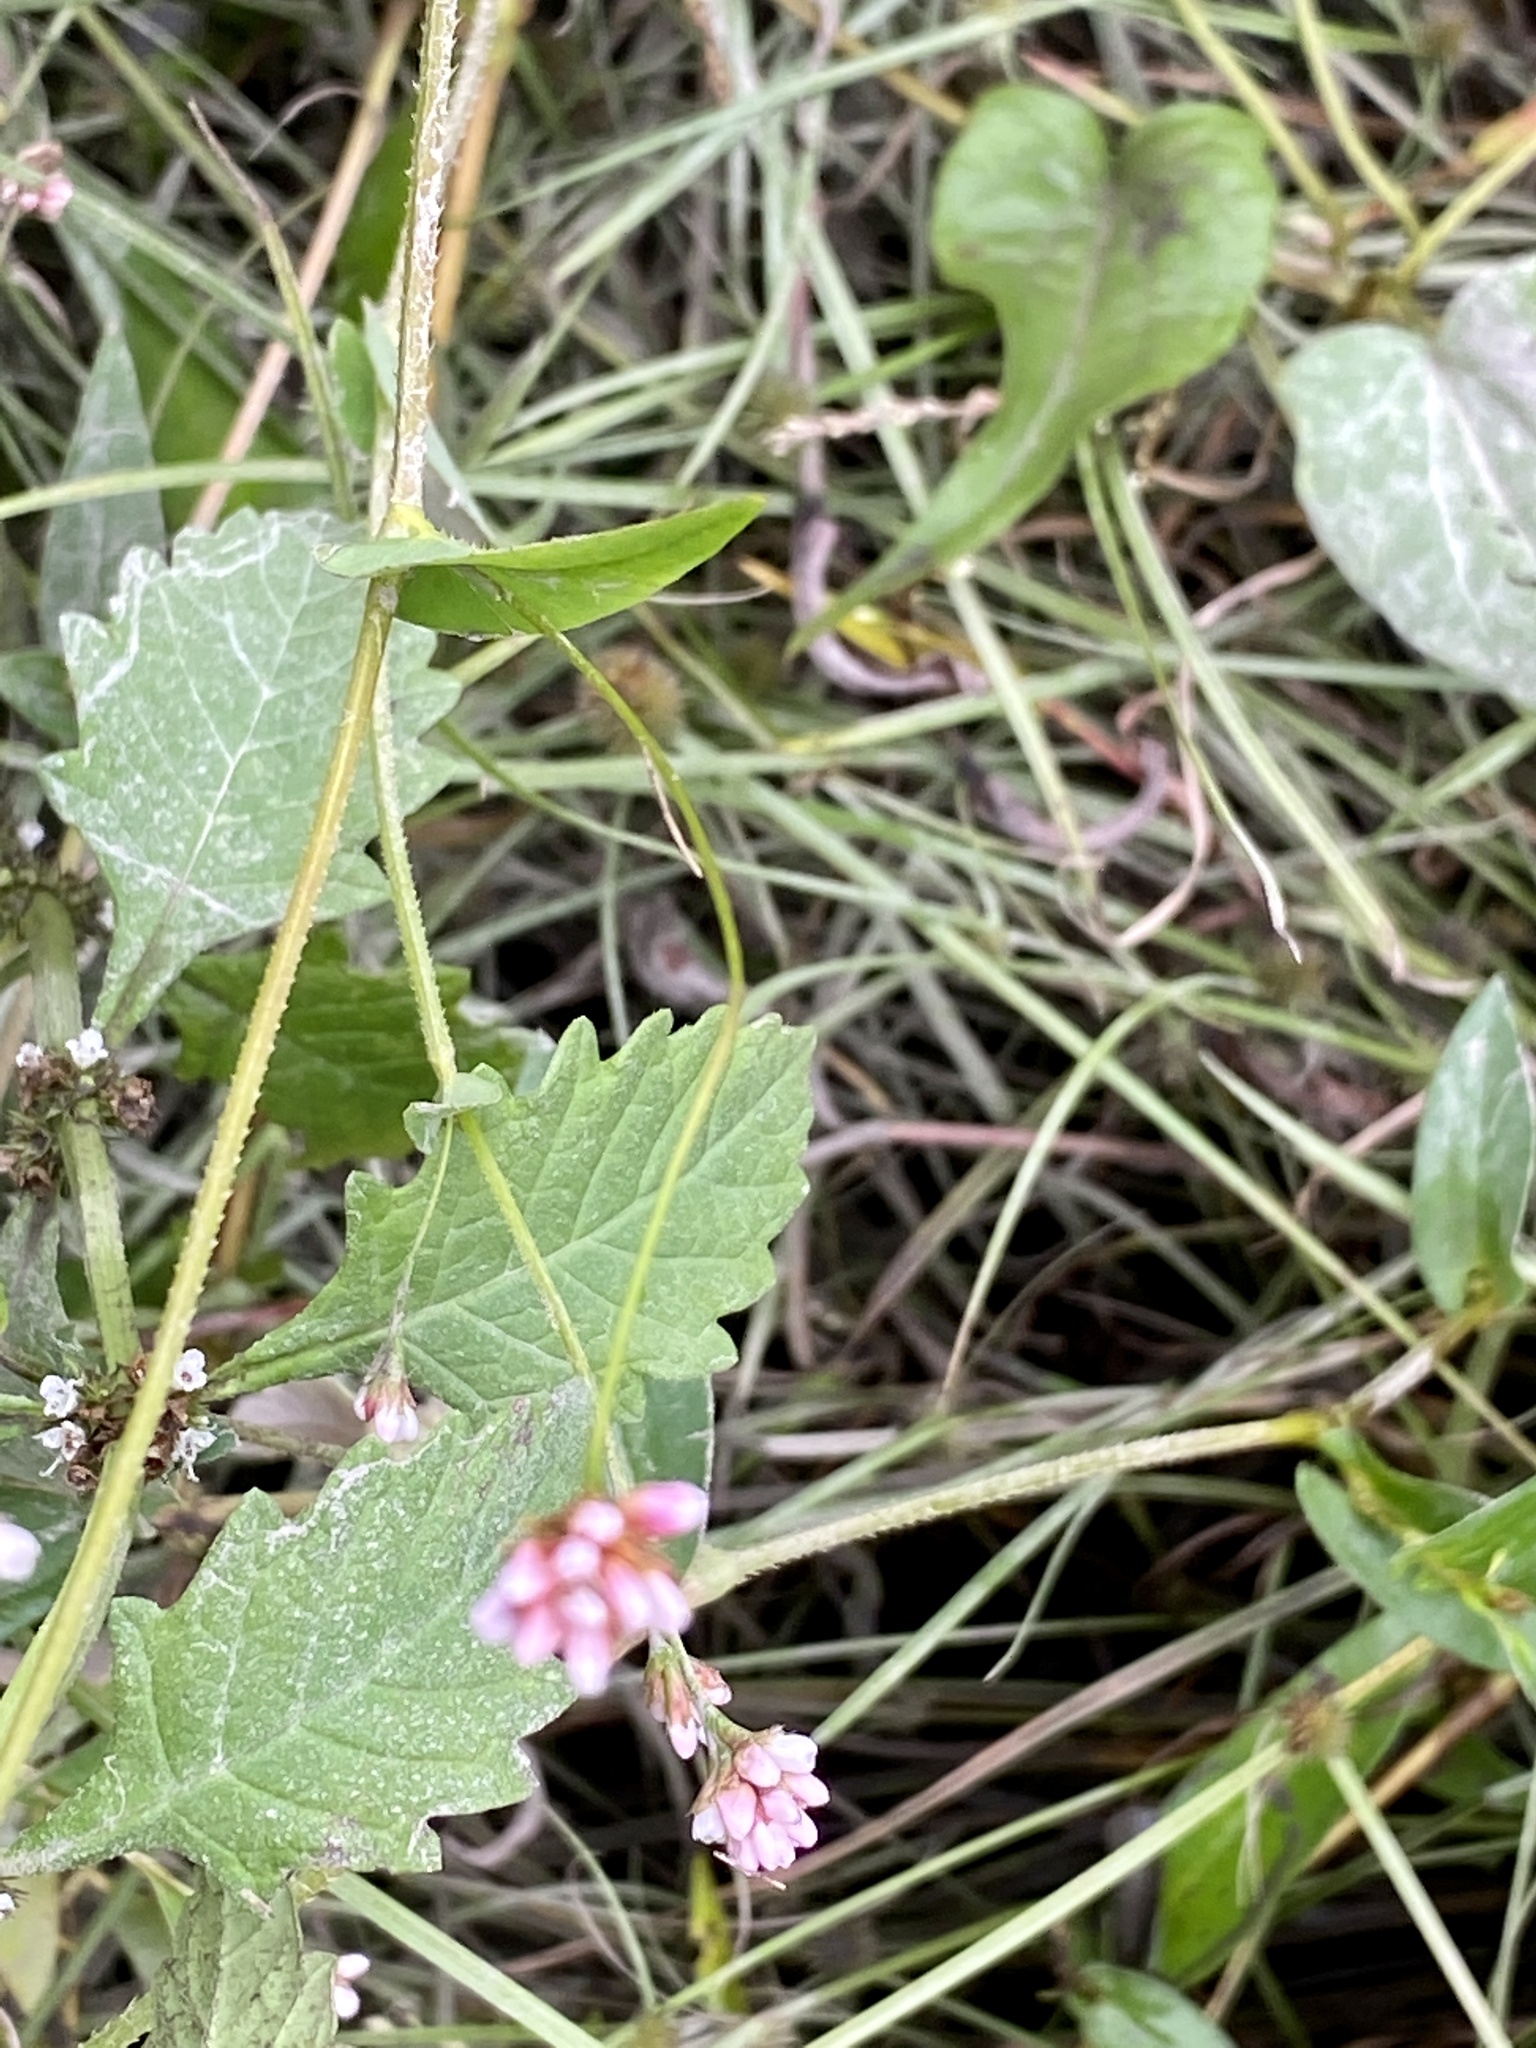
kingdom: Plantae
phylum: Tracheophyta
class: Magnoliopsida
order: Caryophyllales
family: Polygonaceae
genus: Persicaria
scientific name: Persicaria sagittata
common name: American tearthumb
